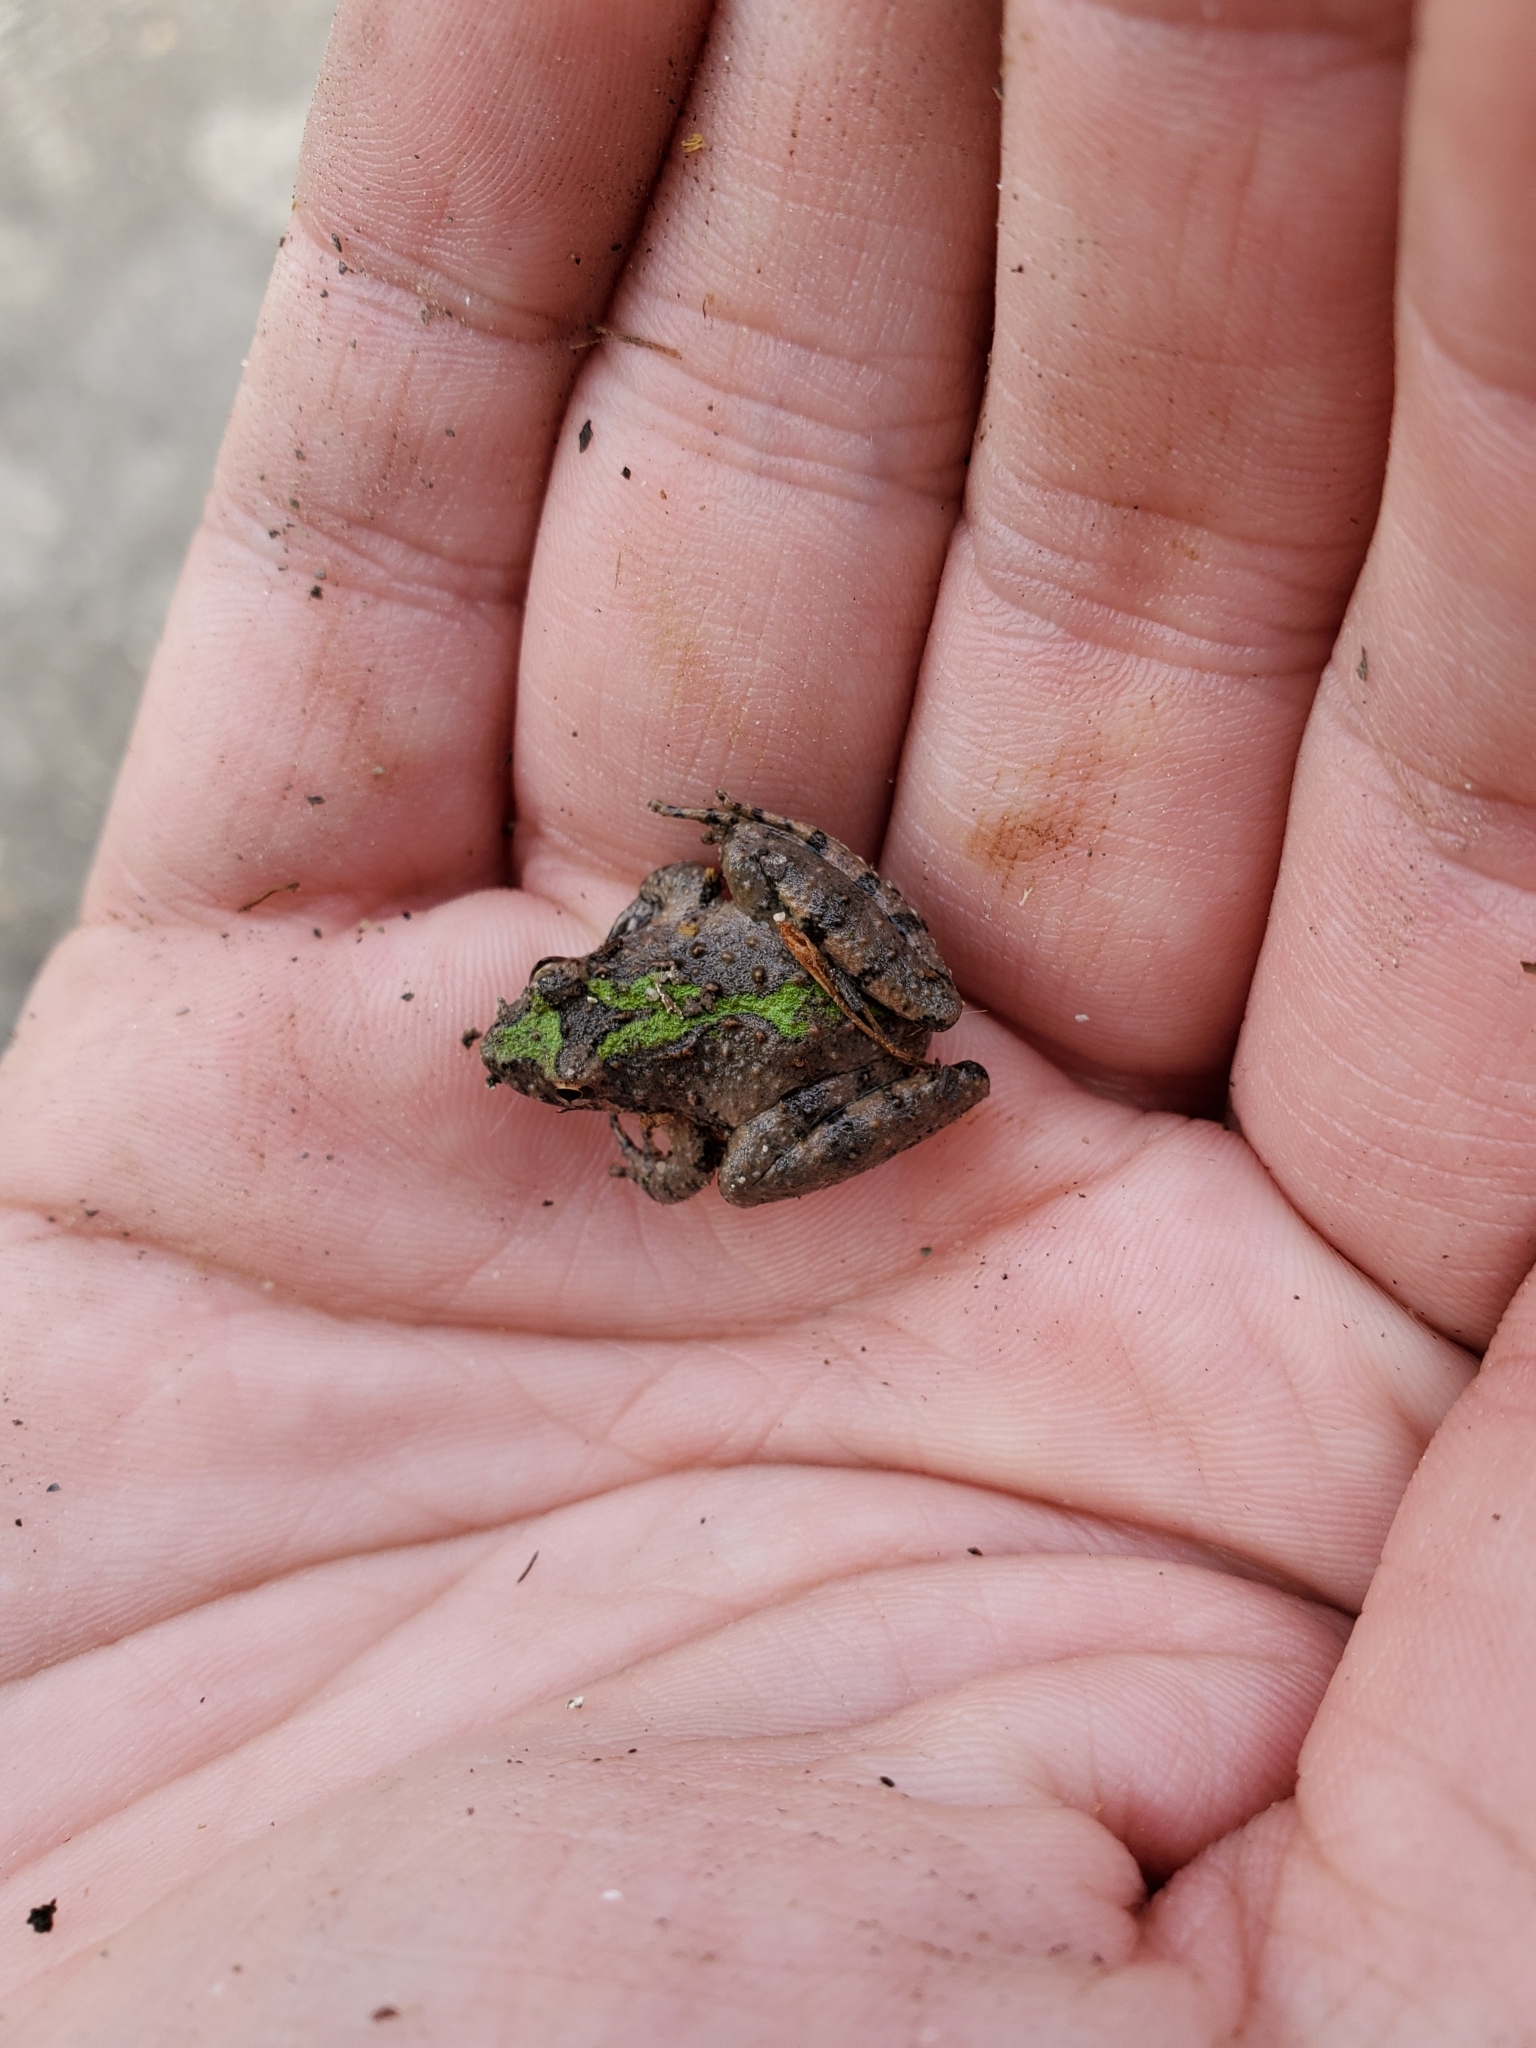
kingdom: Animalia
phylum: Chordata
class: Amphibia
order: Anura
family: Hylidae
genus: Acris
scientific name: Acris blanchardi
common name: Blanchard's cricket frog
